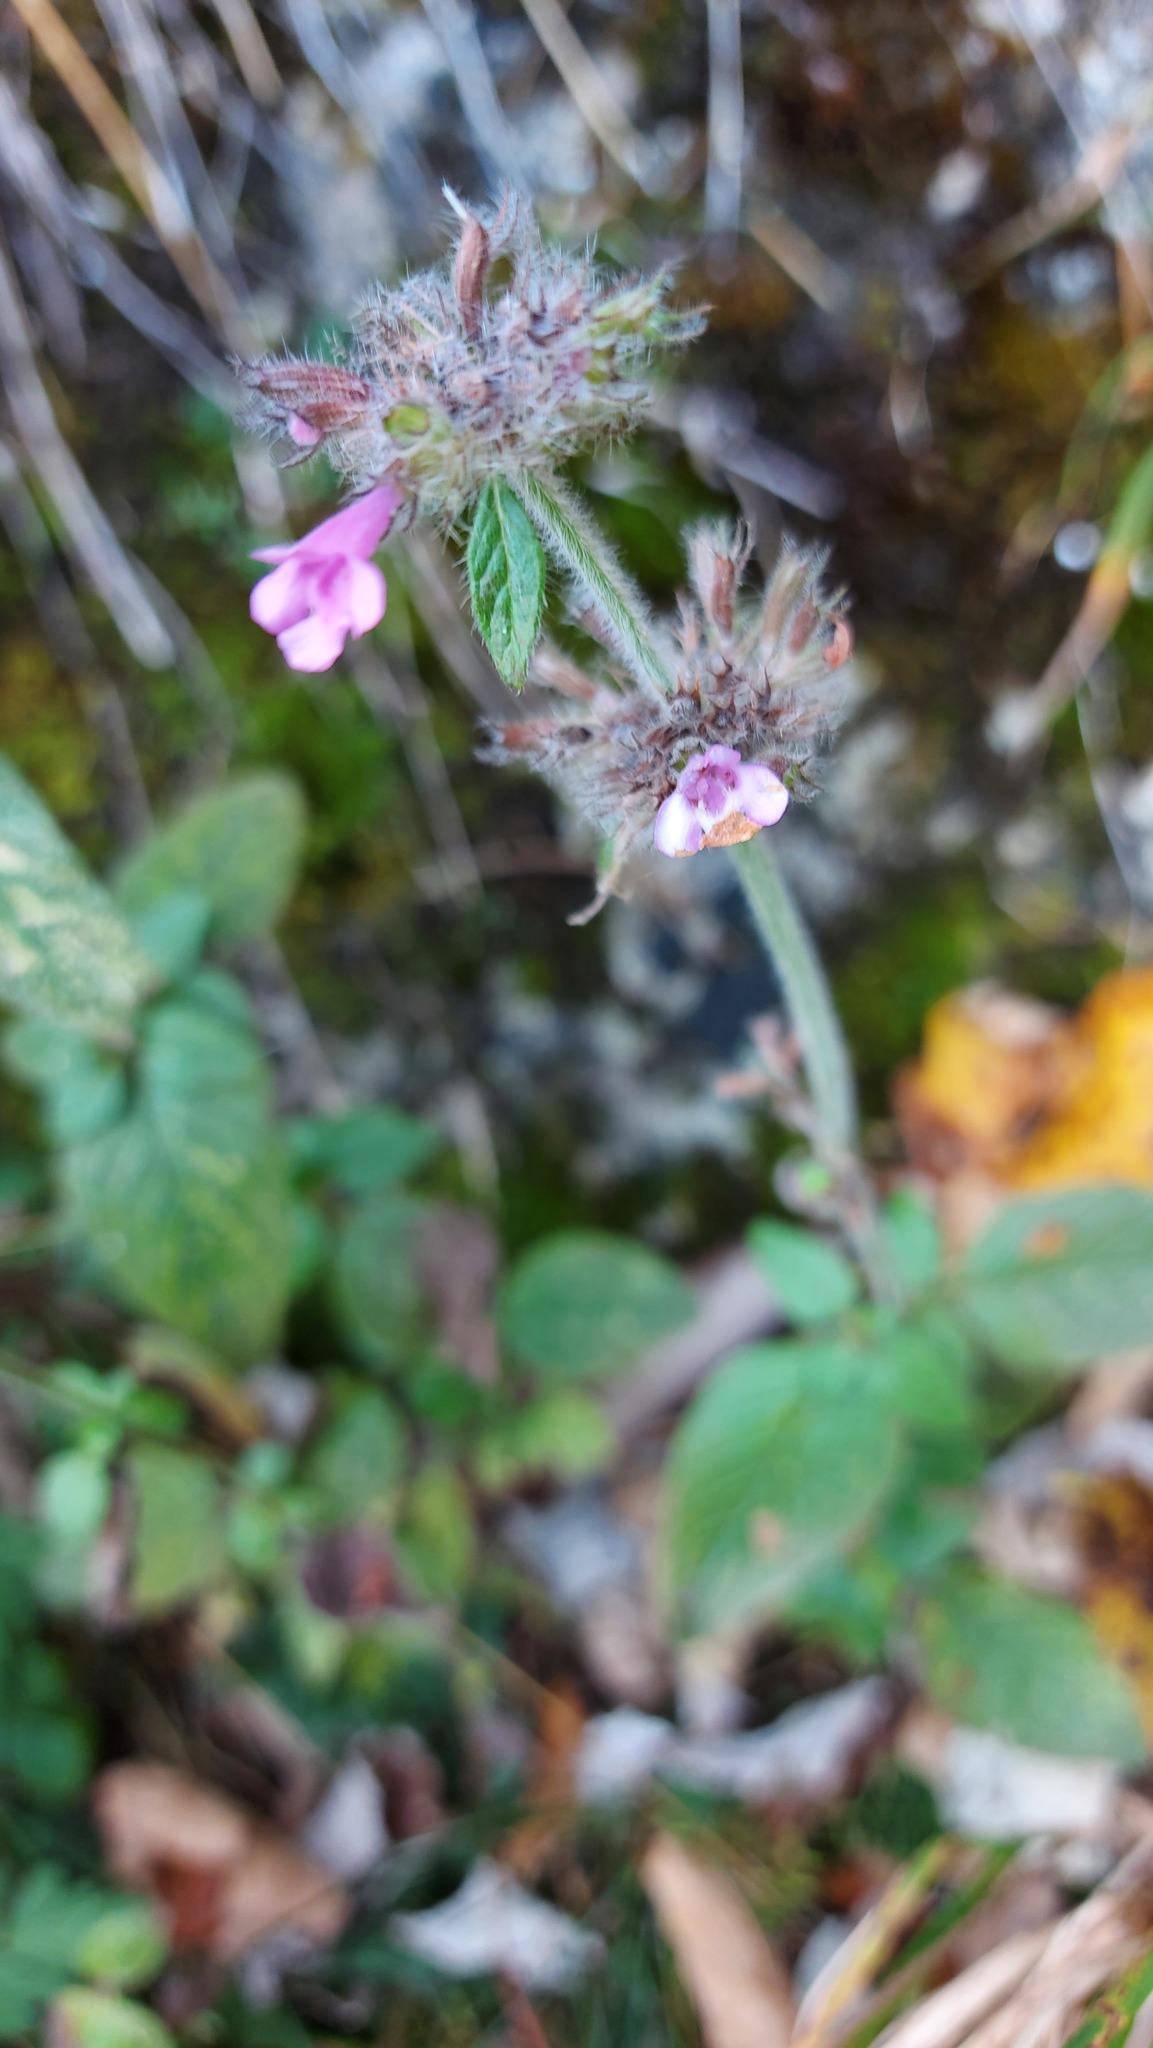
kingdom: Plantae
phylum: Tracheophyta
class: Magnoliopsida
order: Lamiales
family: Lamiaceae
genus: Clinopodium
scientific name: Clinopodium vulgare
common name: Wild basil
